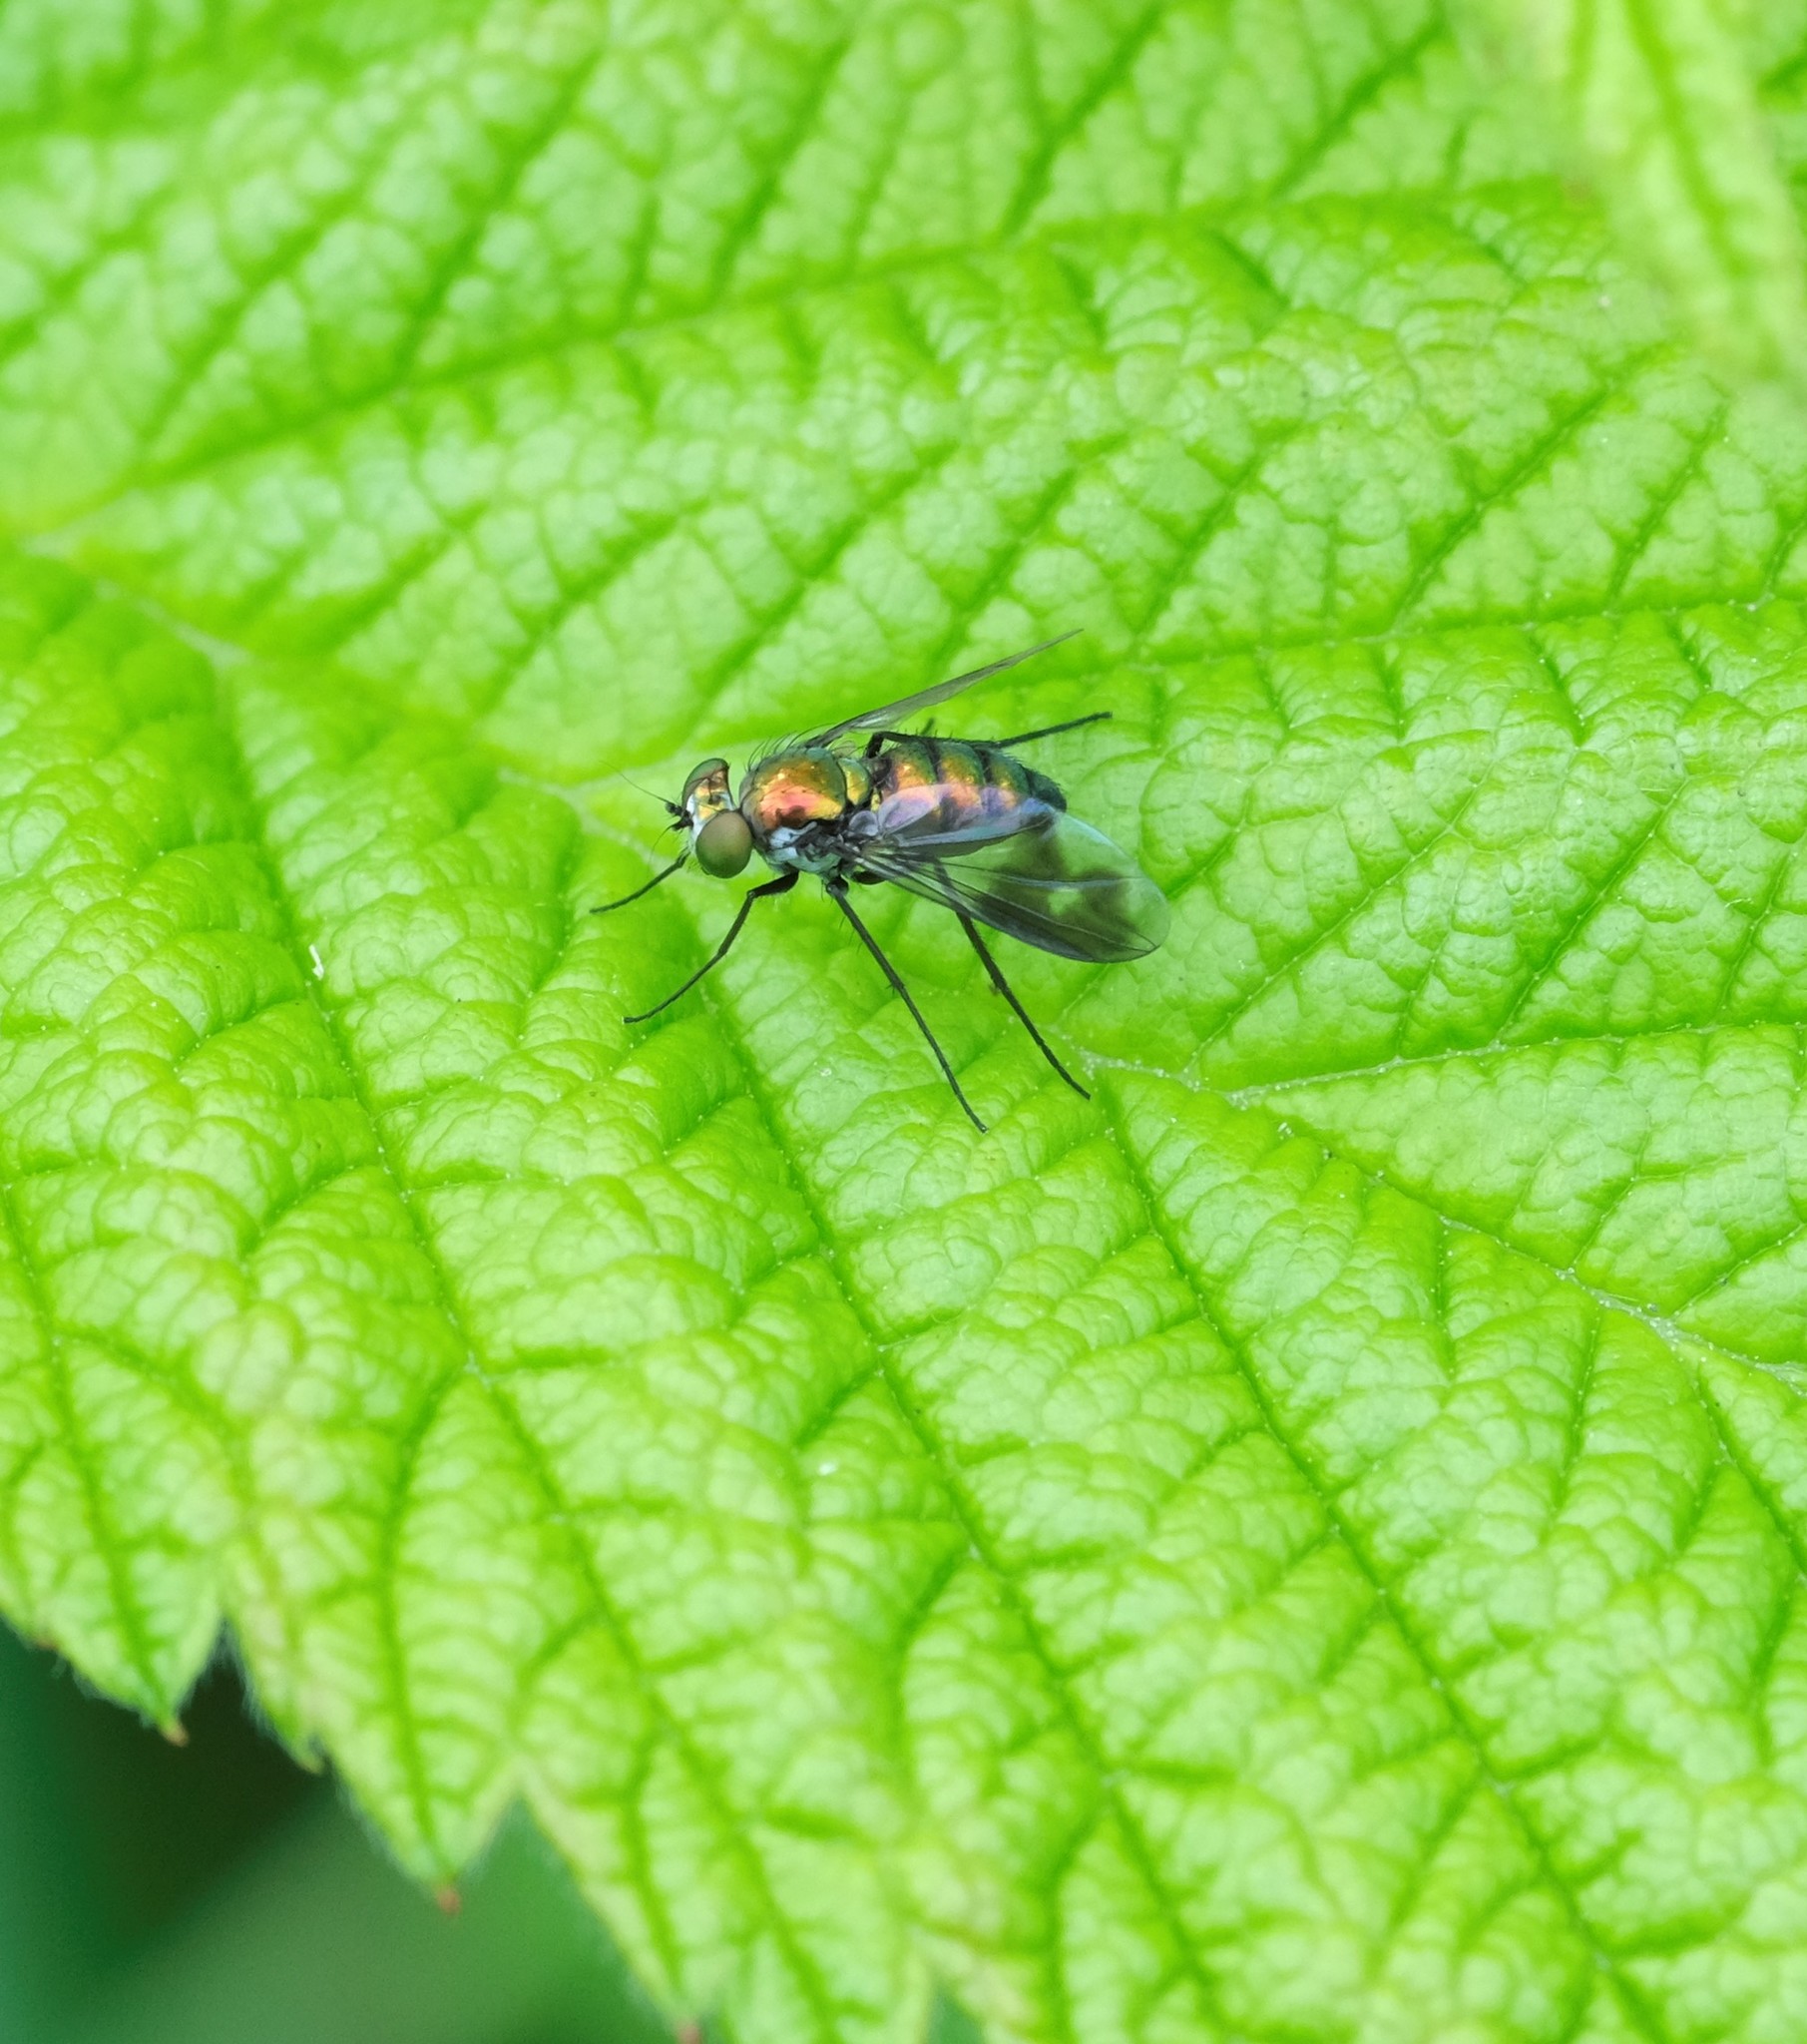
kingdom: Animalia
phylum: Arthropoda
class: Insecta
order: Diptera
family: Dolichopodidae
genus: Condylostylus
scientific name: Condylostylus patibulatus
